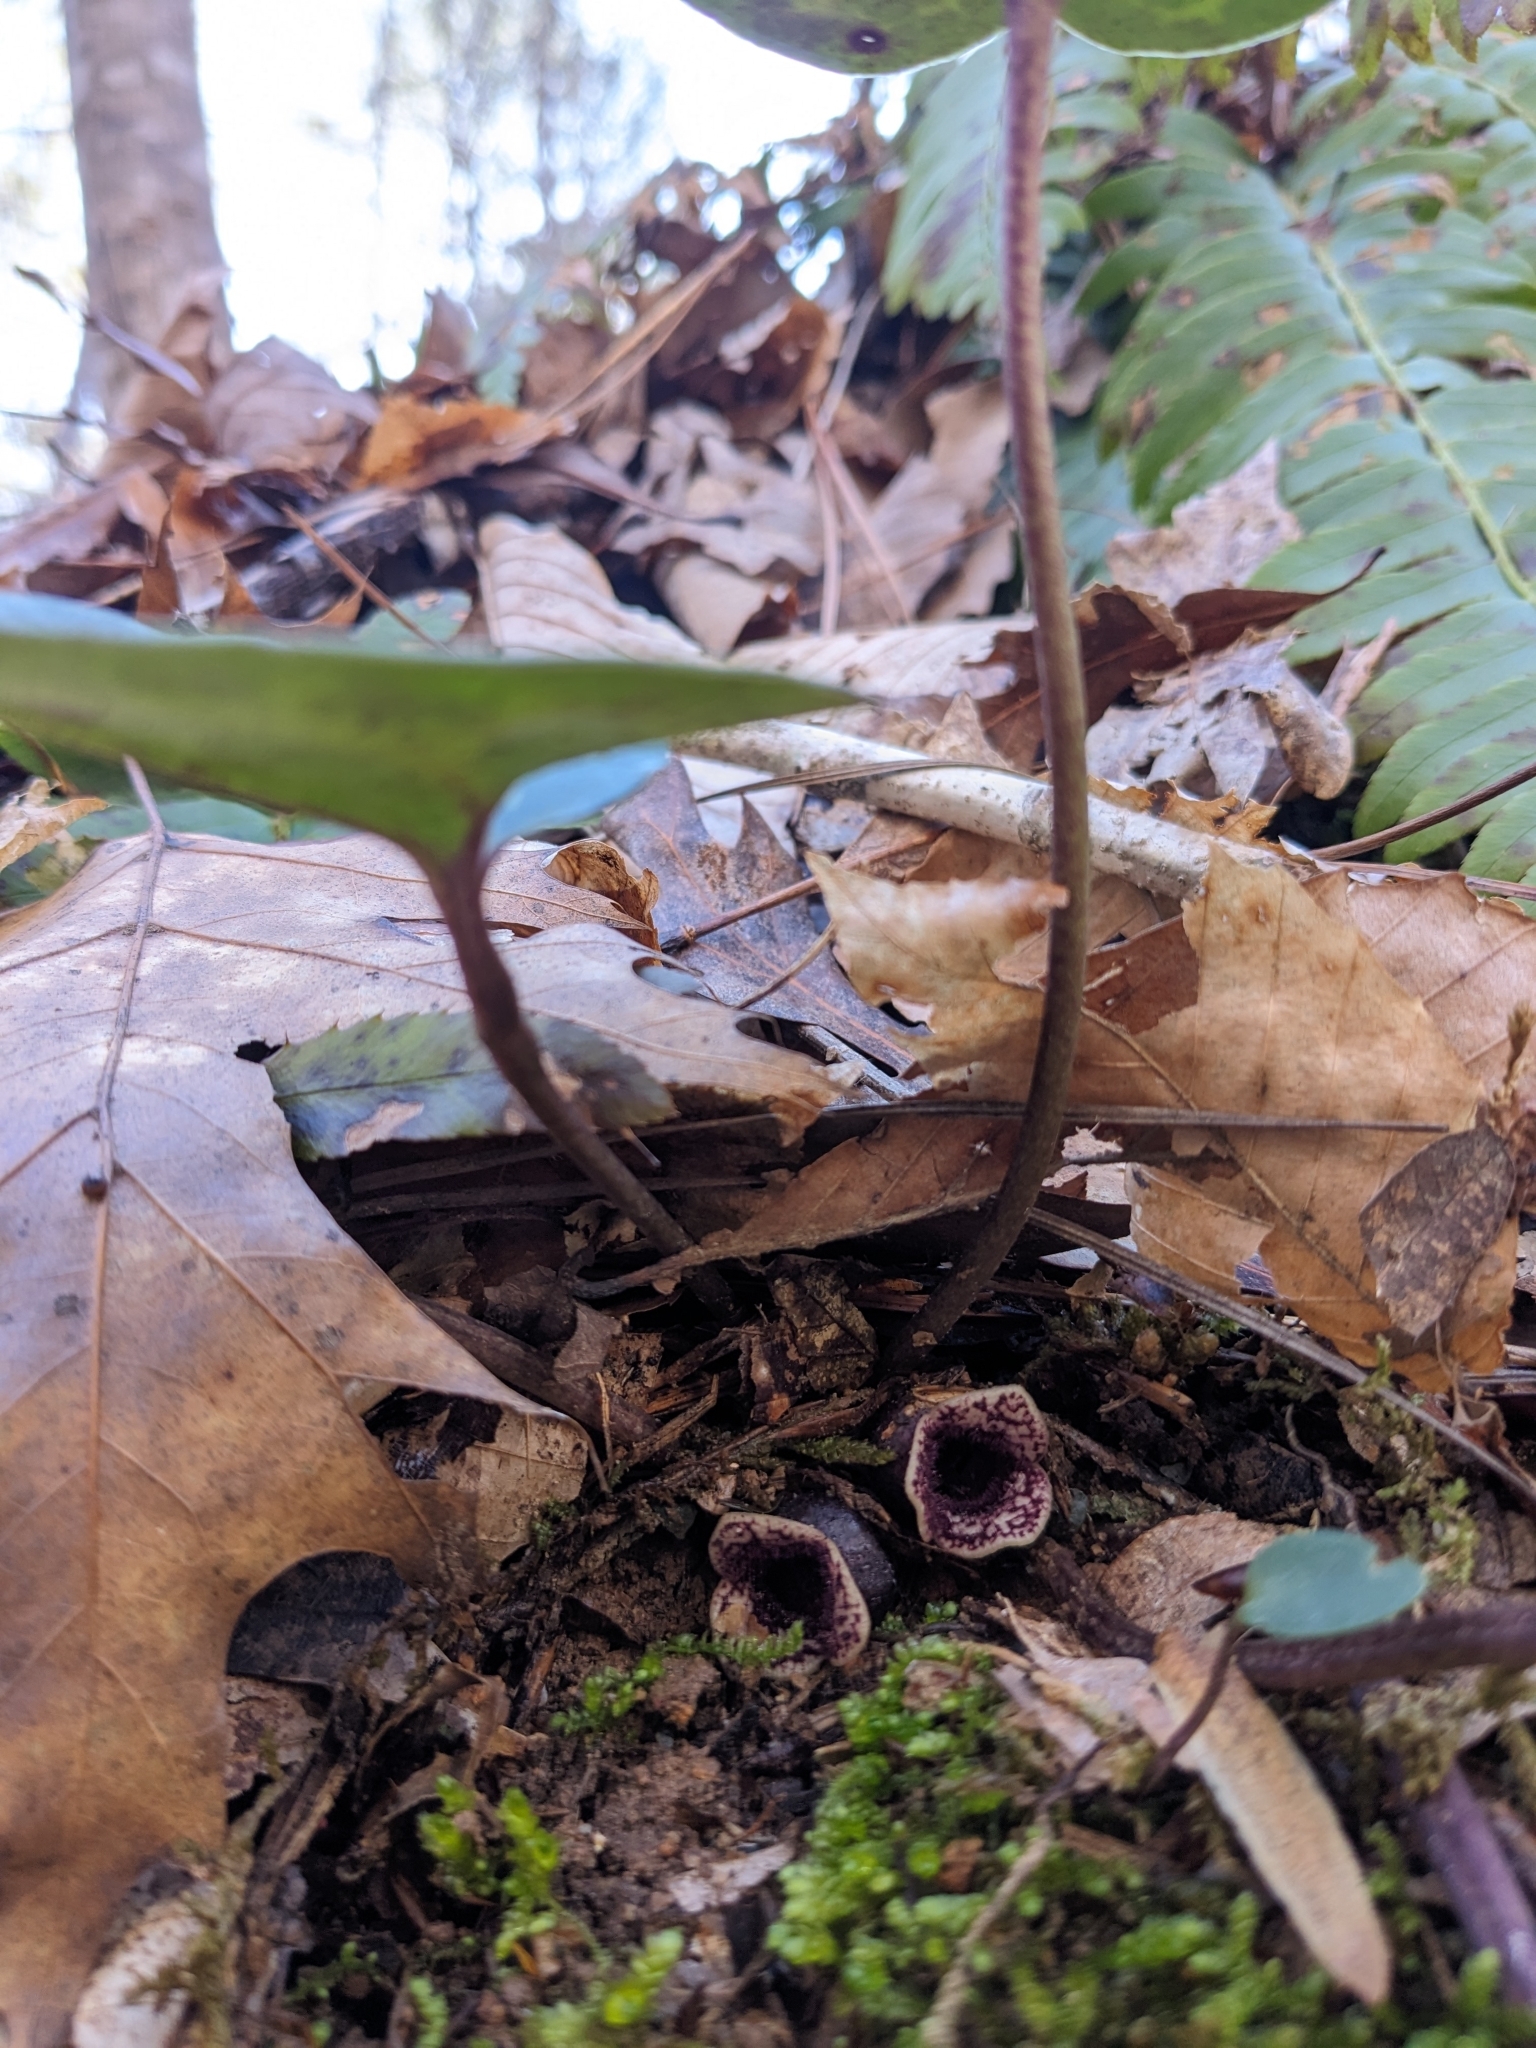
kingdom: Plantae
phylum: Tracheophyta
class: Magnoliopsida
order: Piperales
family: Aristolochiaceae
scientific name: Aristolochiaceae
